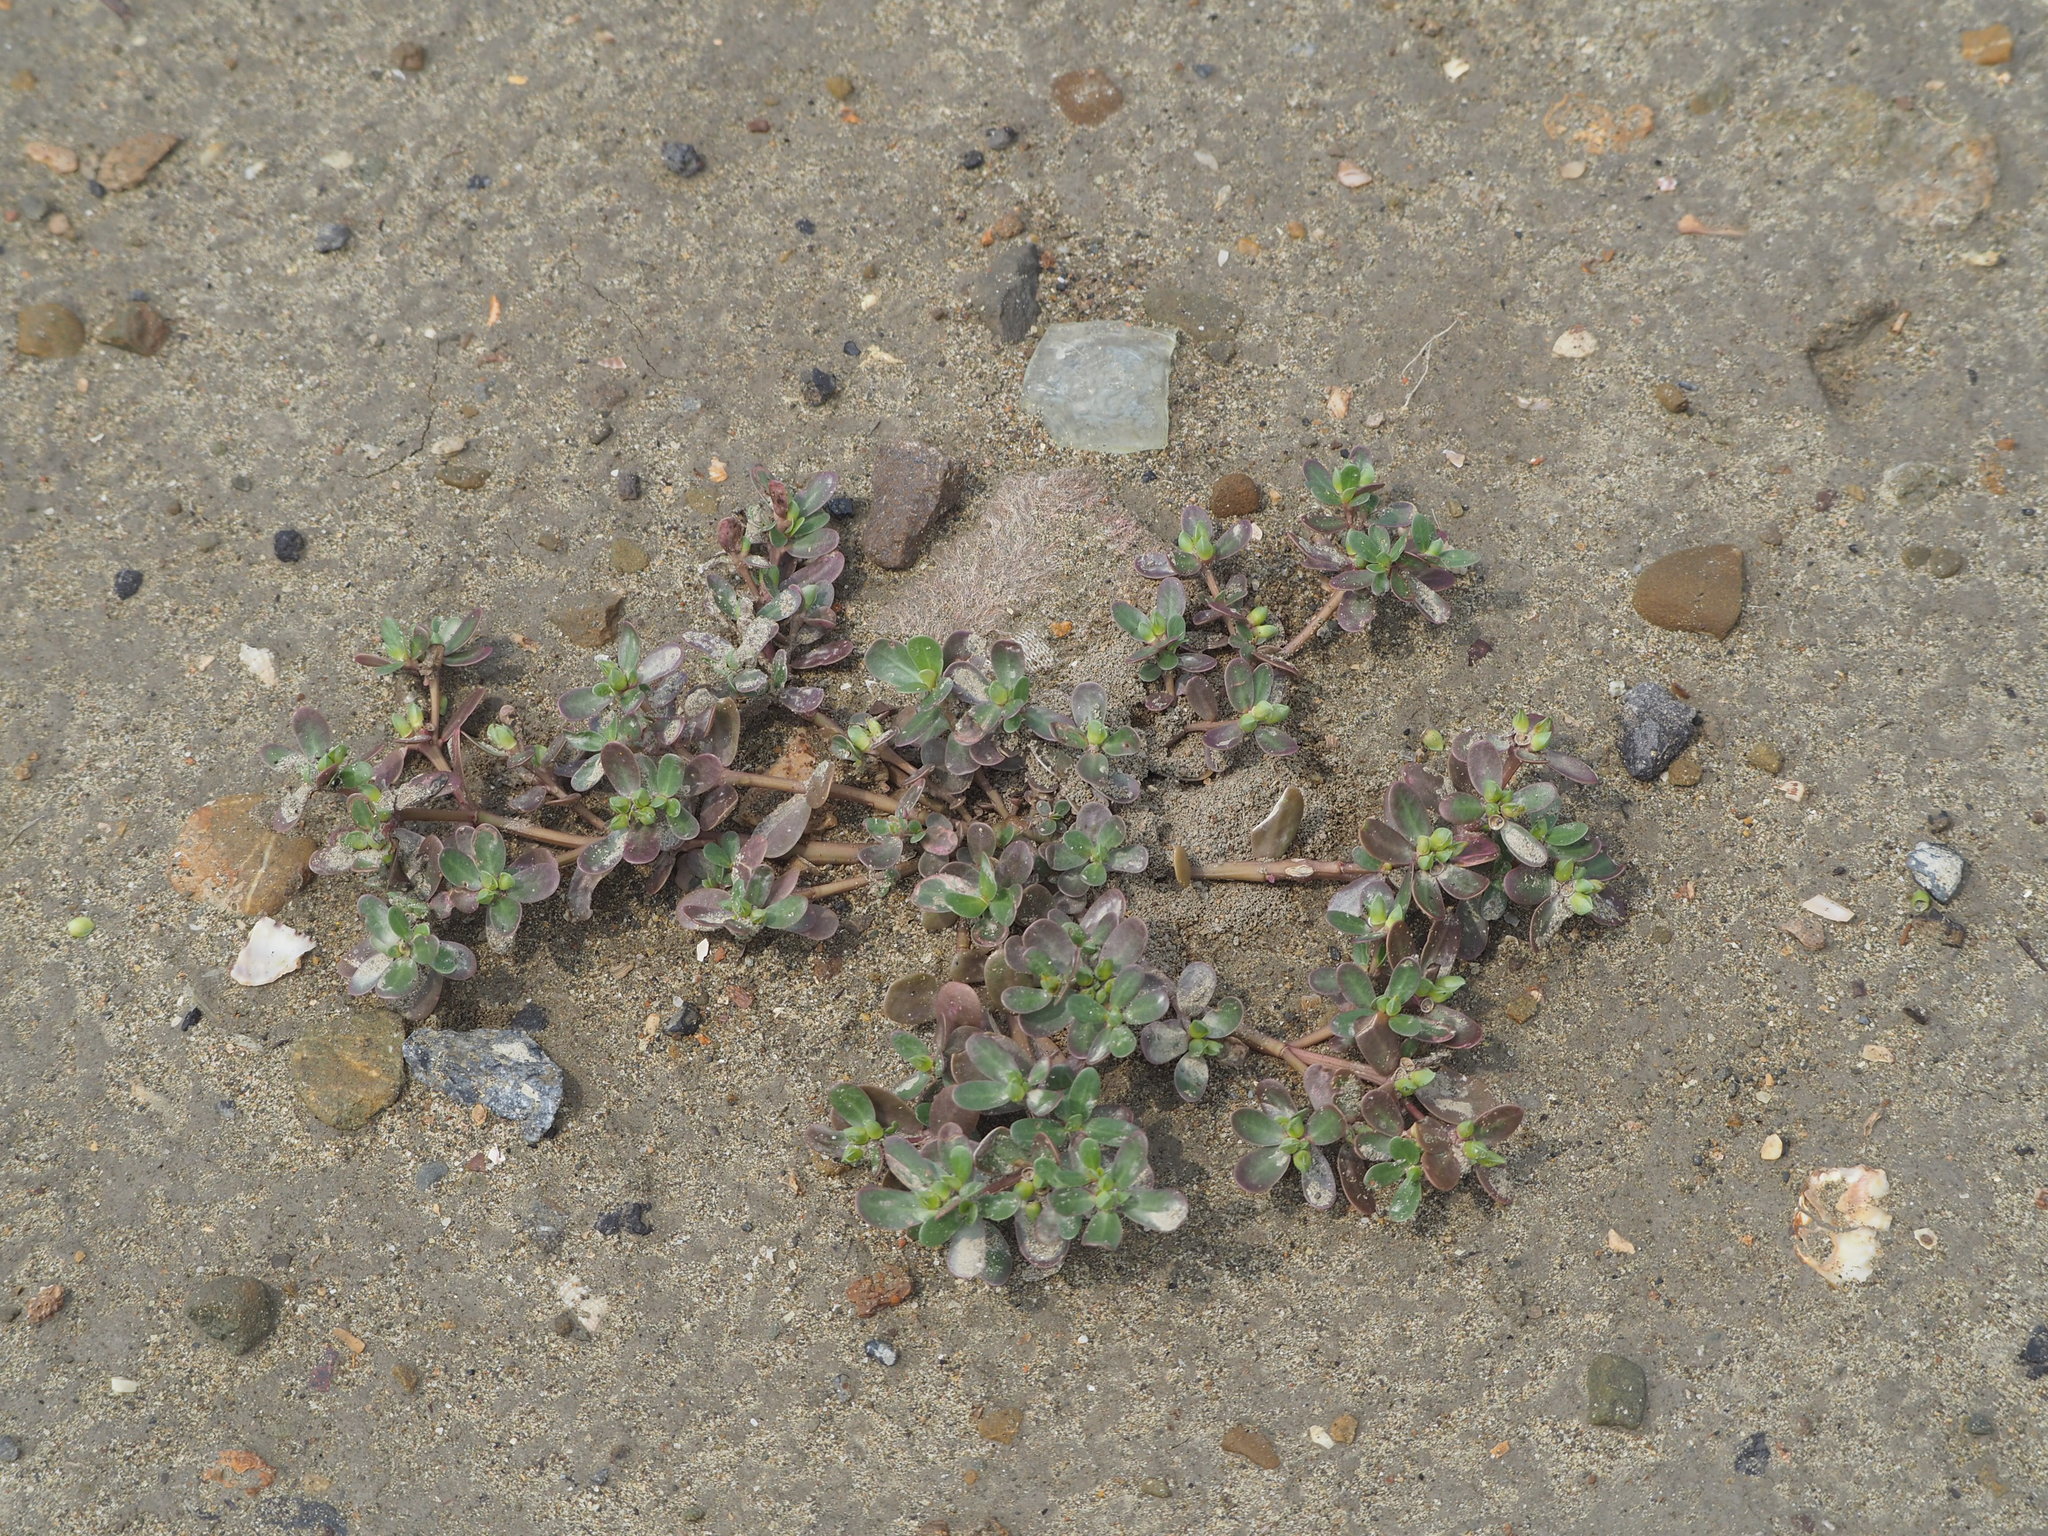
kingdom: Plantae
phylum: Tracheophyta
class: Magnoliopsida
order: Caryophyllales
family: Portulacaceae
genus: Portulaca
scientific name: Portulaca oleracea
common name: Common purslane
